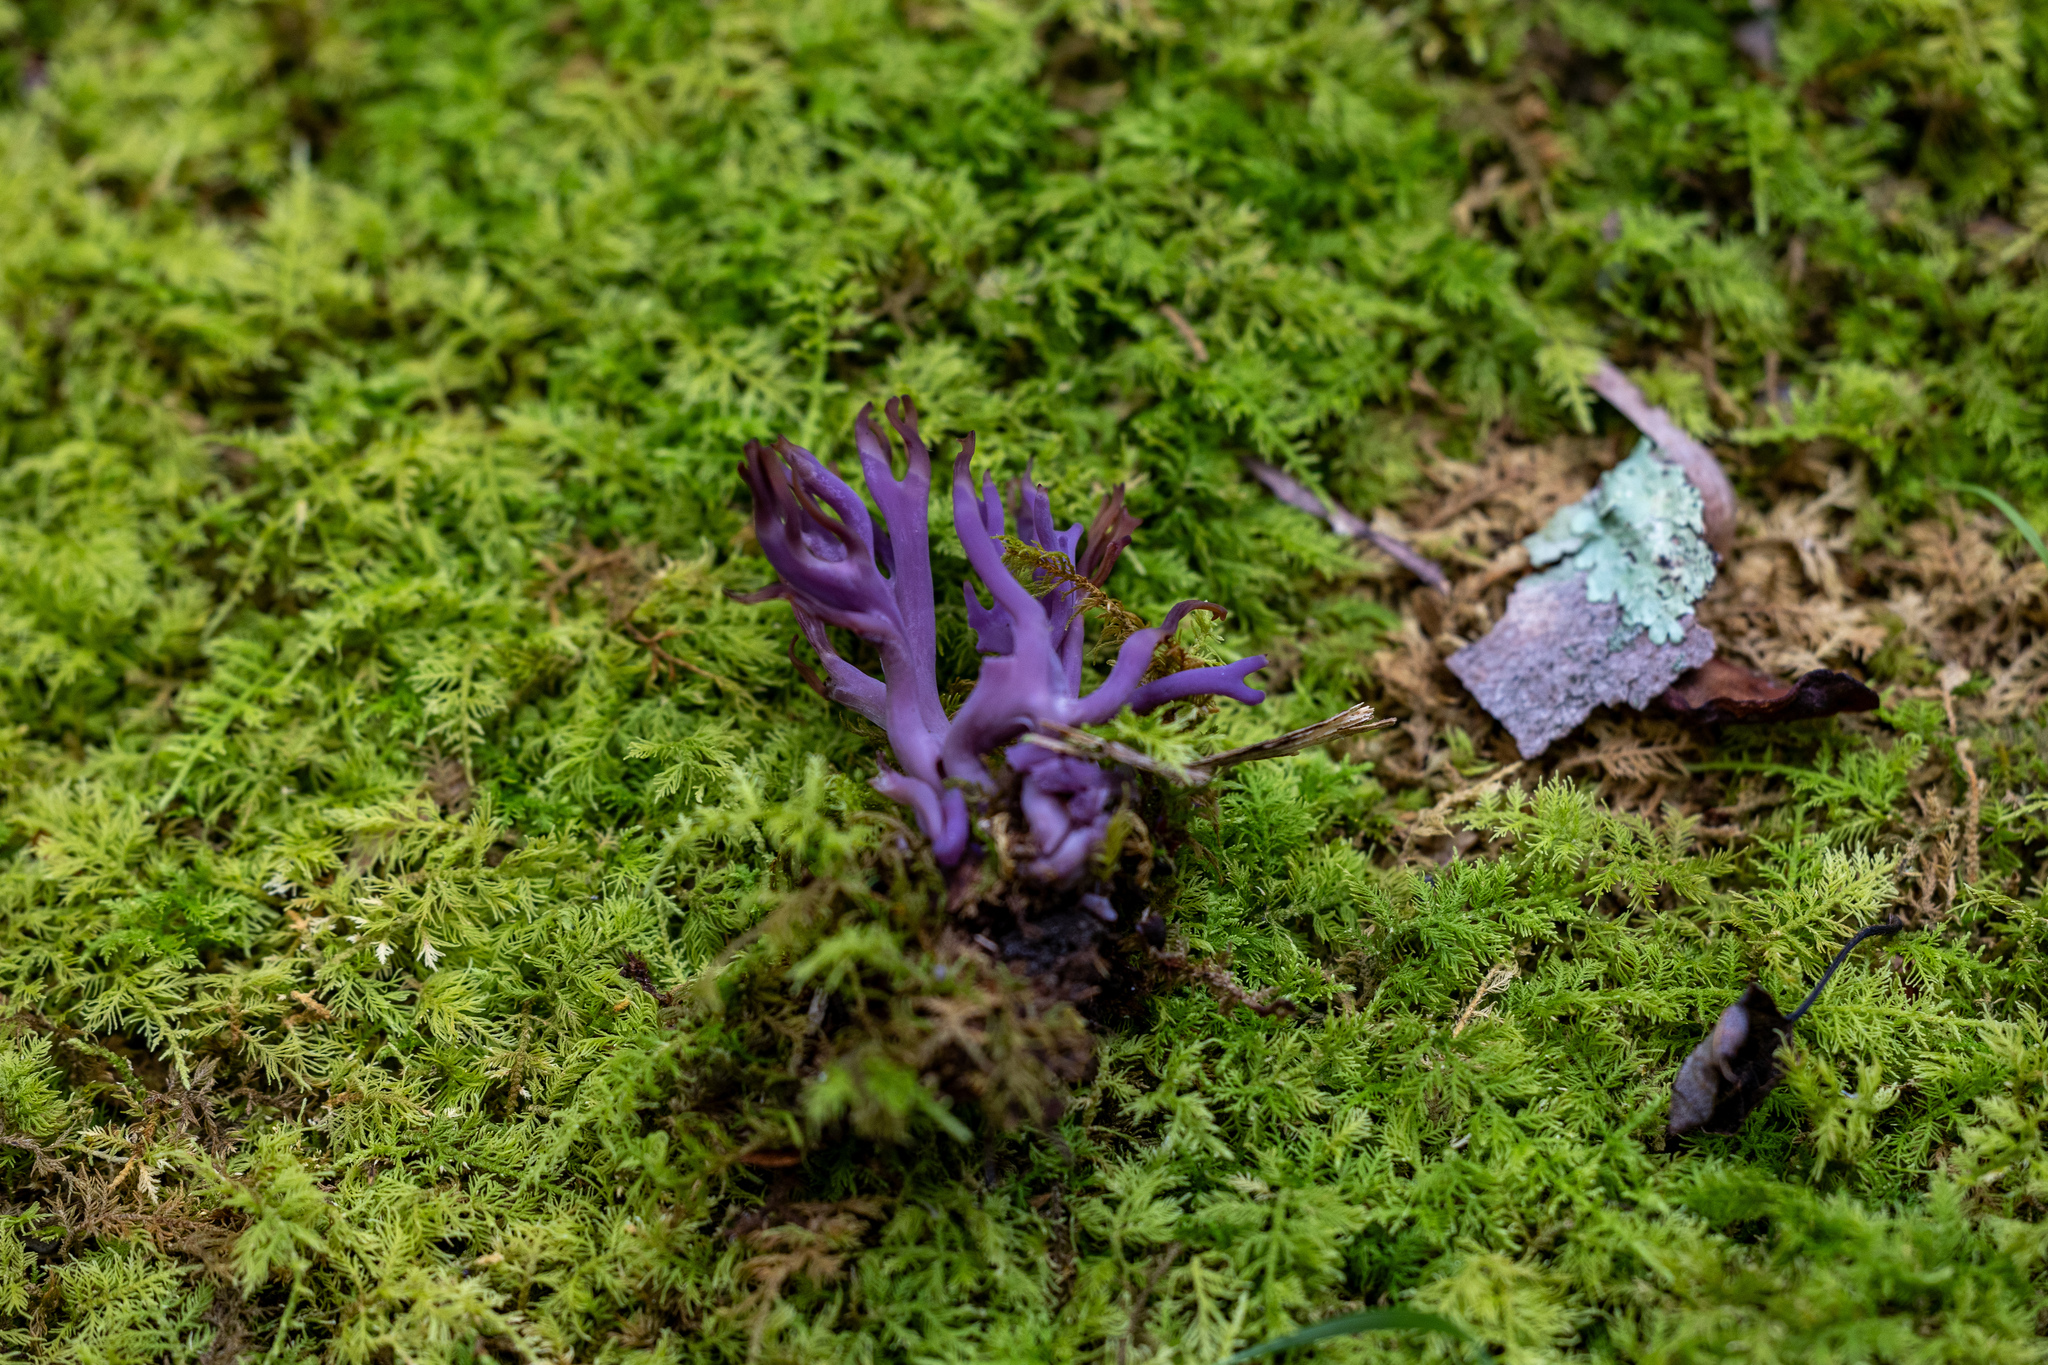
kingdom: Fungi
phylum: Basidiomycota
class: Agaricomycetes
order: Agaricales
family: Clavariaceae
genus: Clavaria
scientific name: Clavaria zollingeri
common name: Violet coral
